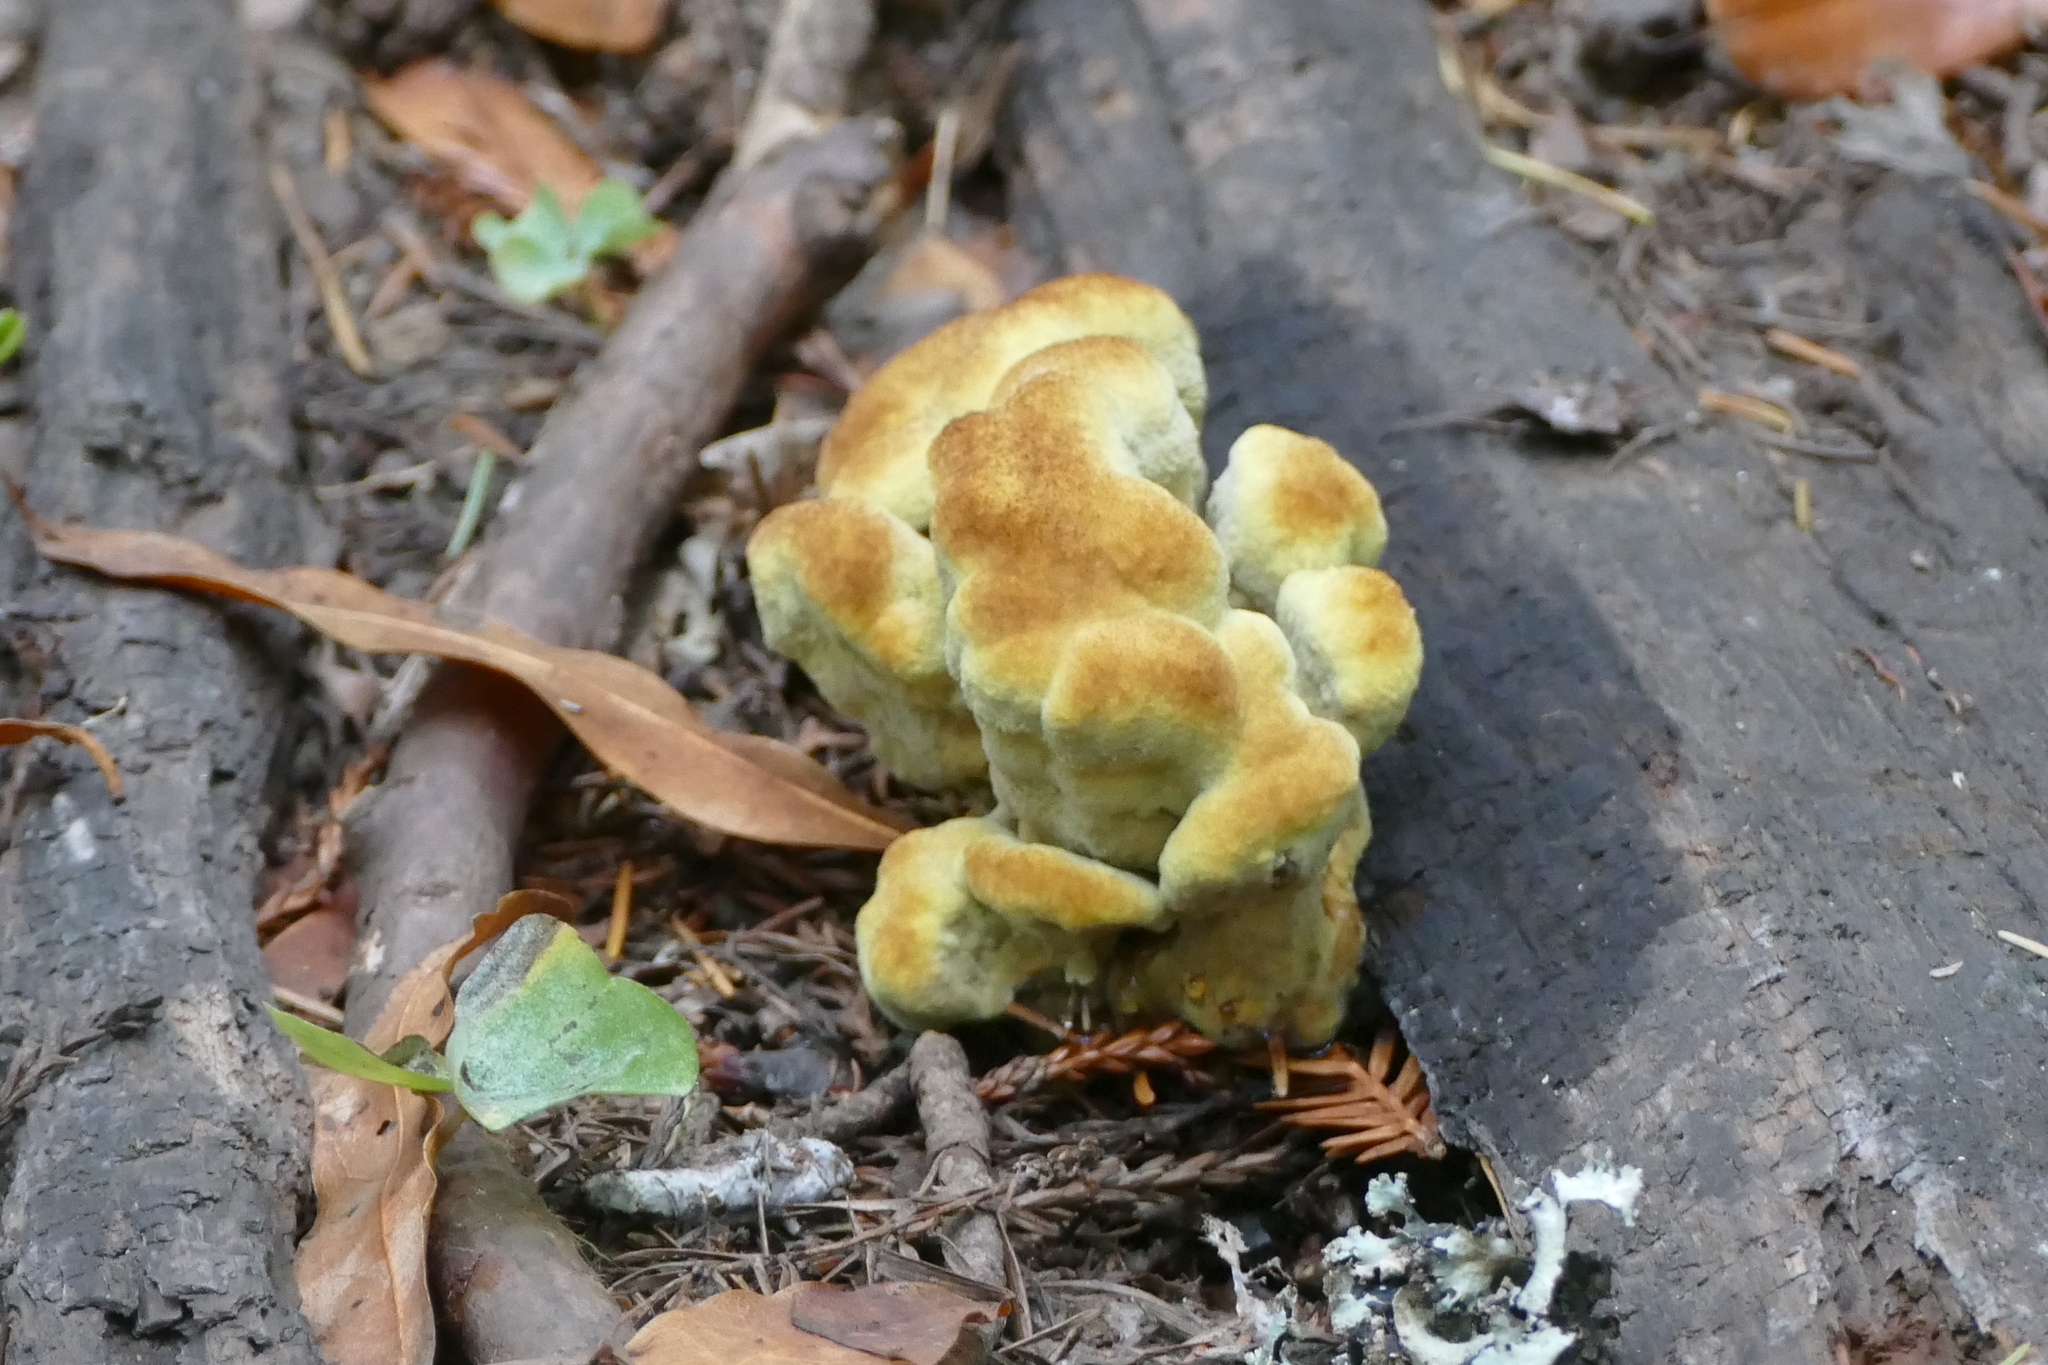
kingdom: Fungi
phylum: Basidiomycota
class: Agaricomycetes
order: Polyporales
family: Laetiporaceae
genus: Phaeolus
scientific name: Phaeolus schweinitzii
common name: Dyer's mazegill
